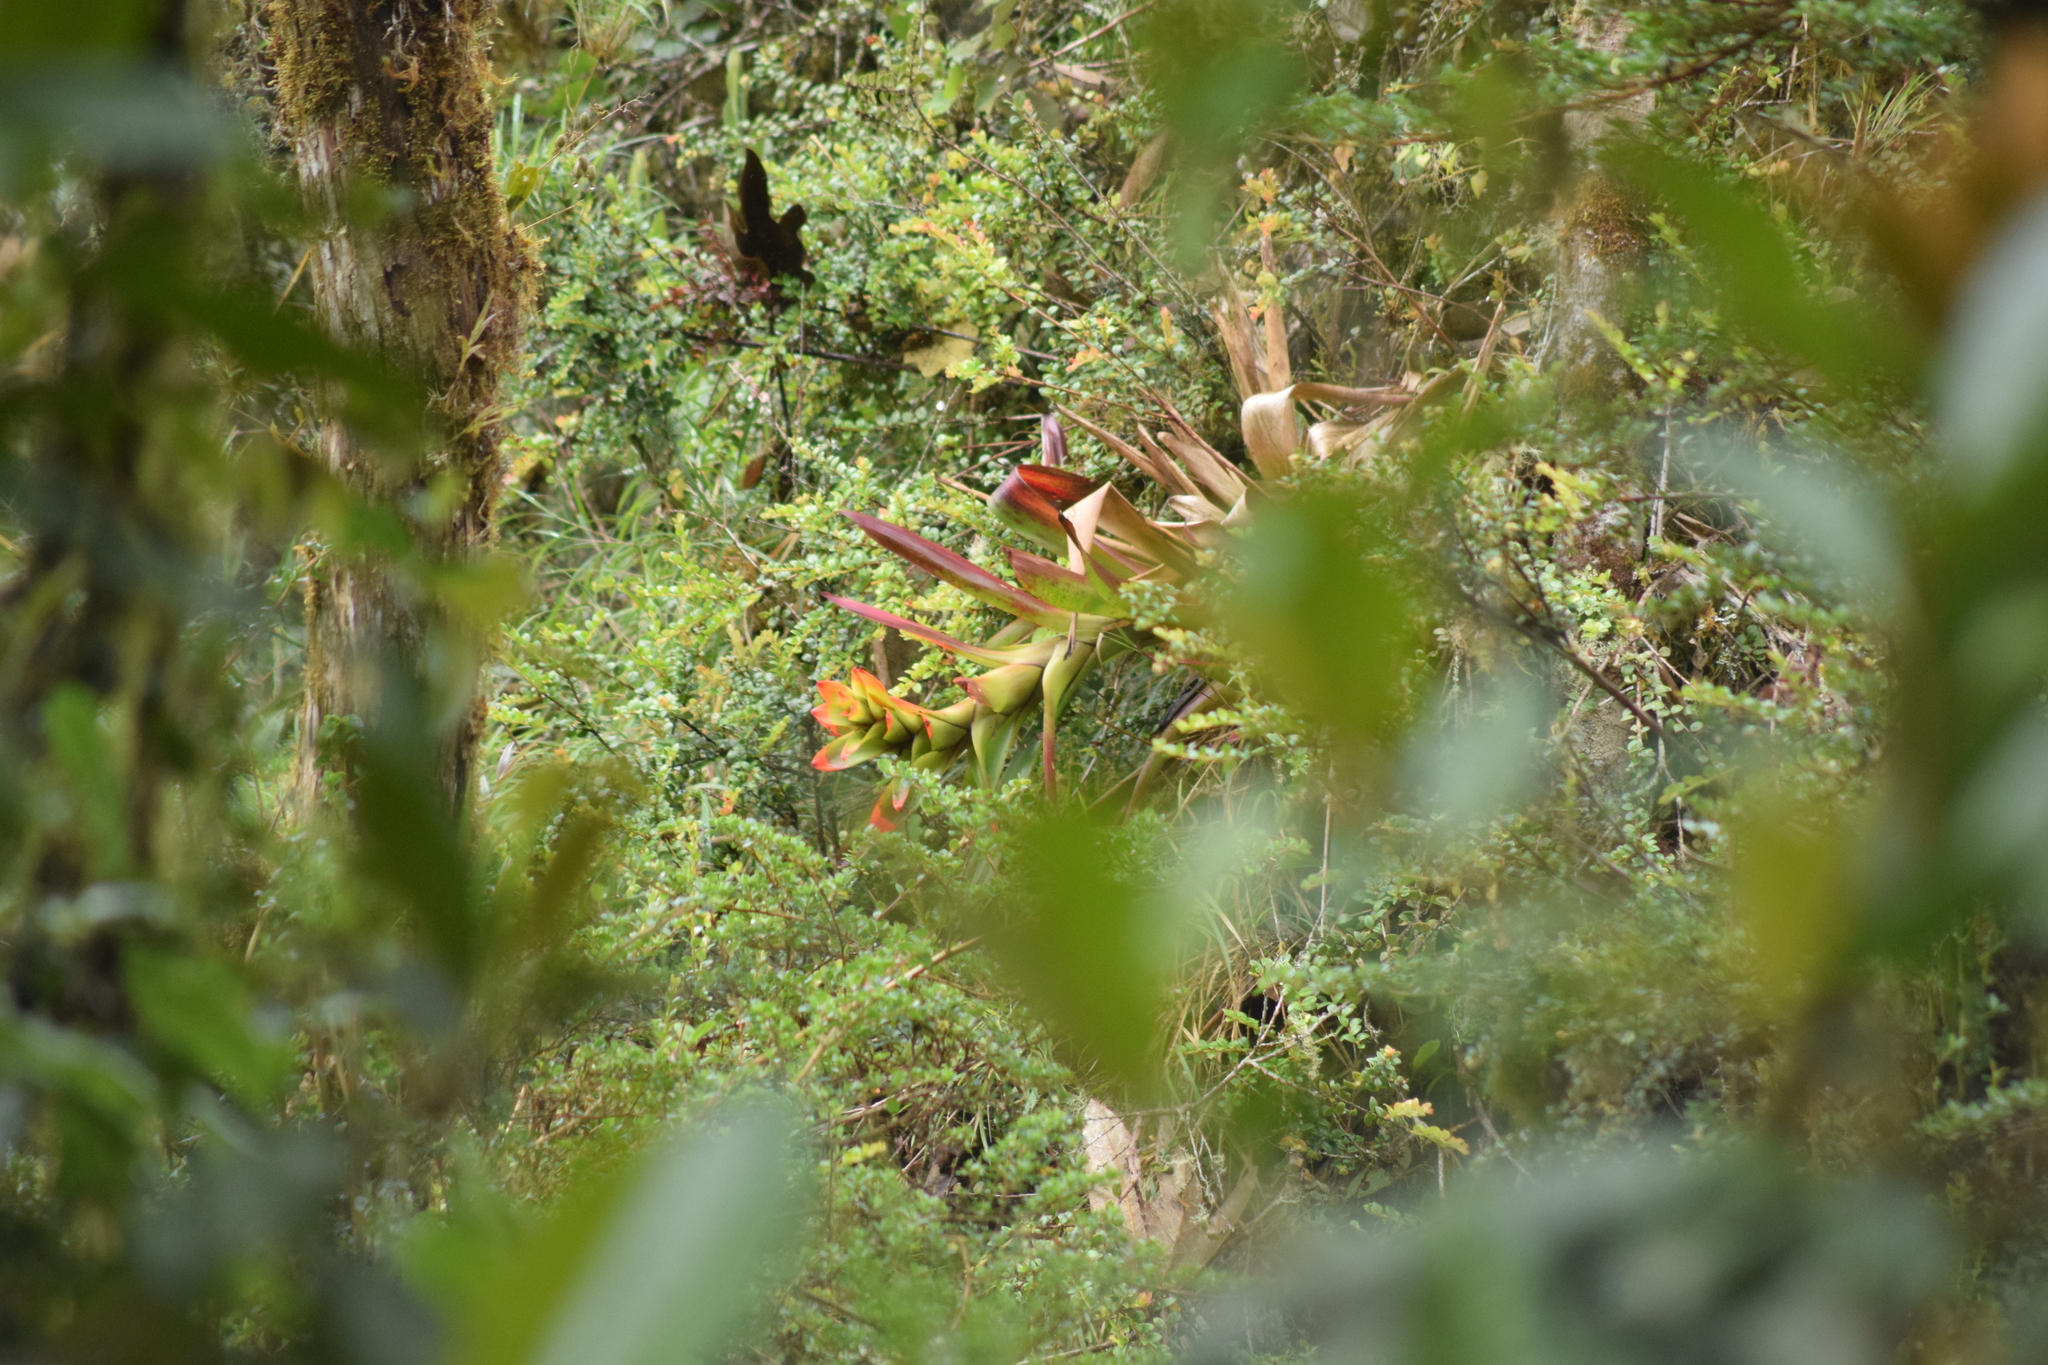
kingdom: Plantae
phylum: Tracheophyta
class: Liliopsida
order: Poales
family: Bromeliaceae
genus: Guzmania
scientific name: Guzmania gloriosa
